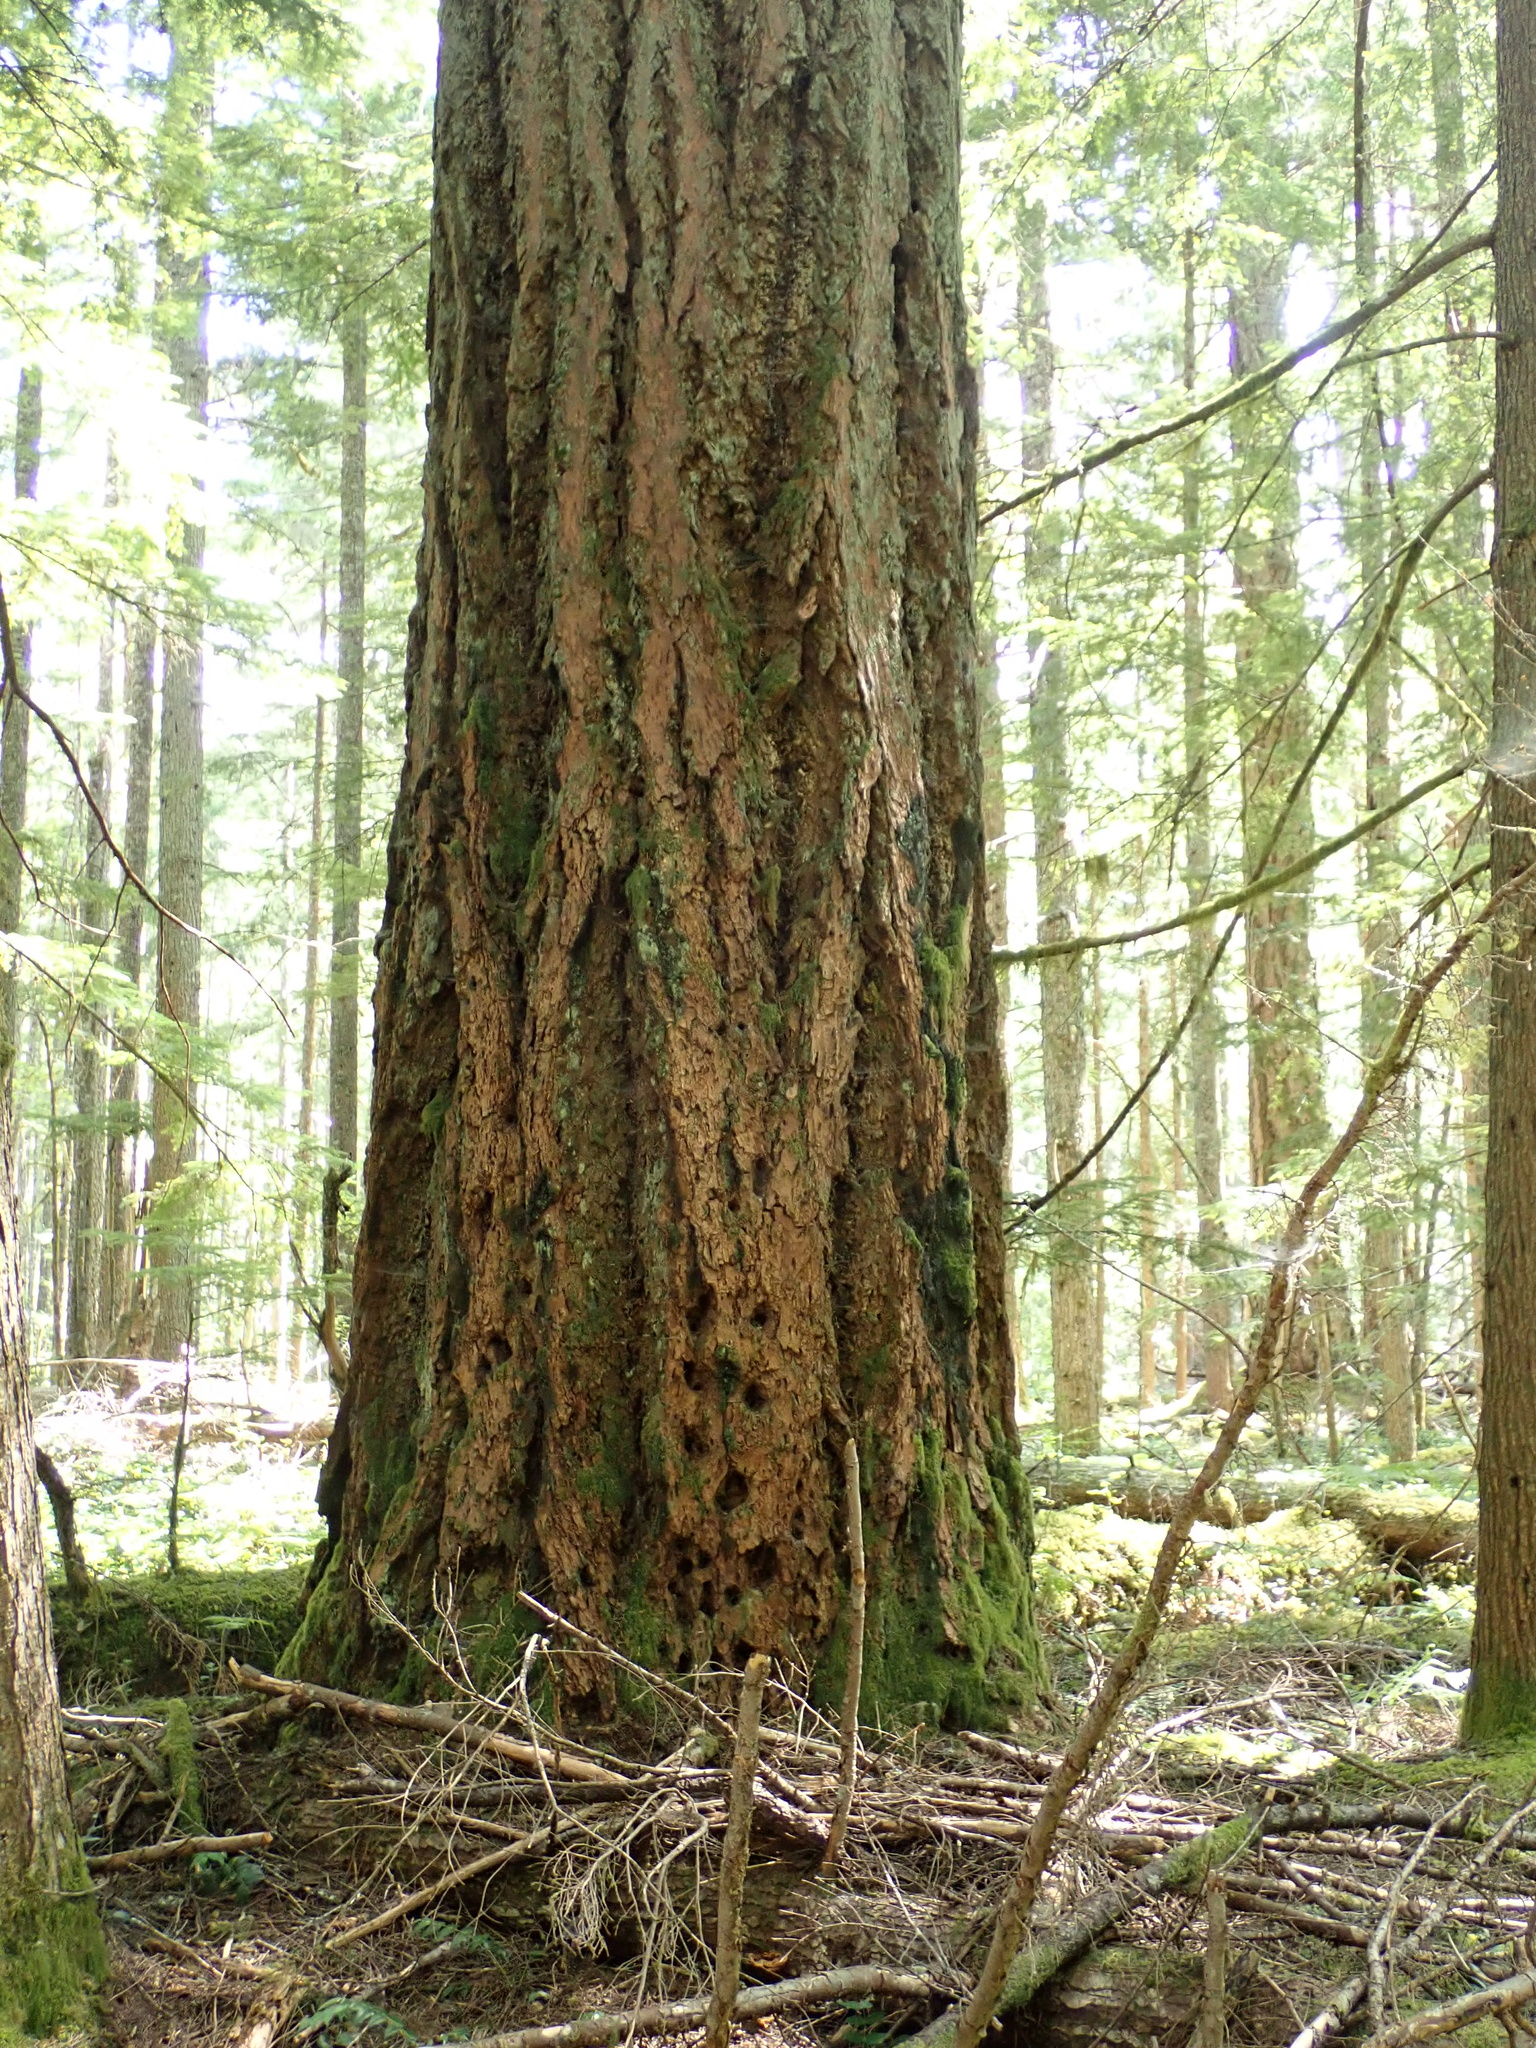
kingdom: Plantae
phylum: Tracheophyta
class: Pinopsida
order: Pinales
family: Pinaceae
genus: Pseudotsuga
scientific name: Pseudotsuga menziesii
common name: Douglas fir
